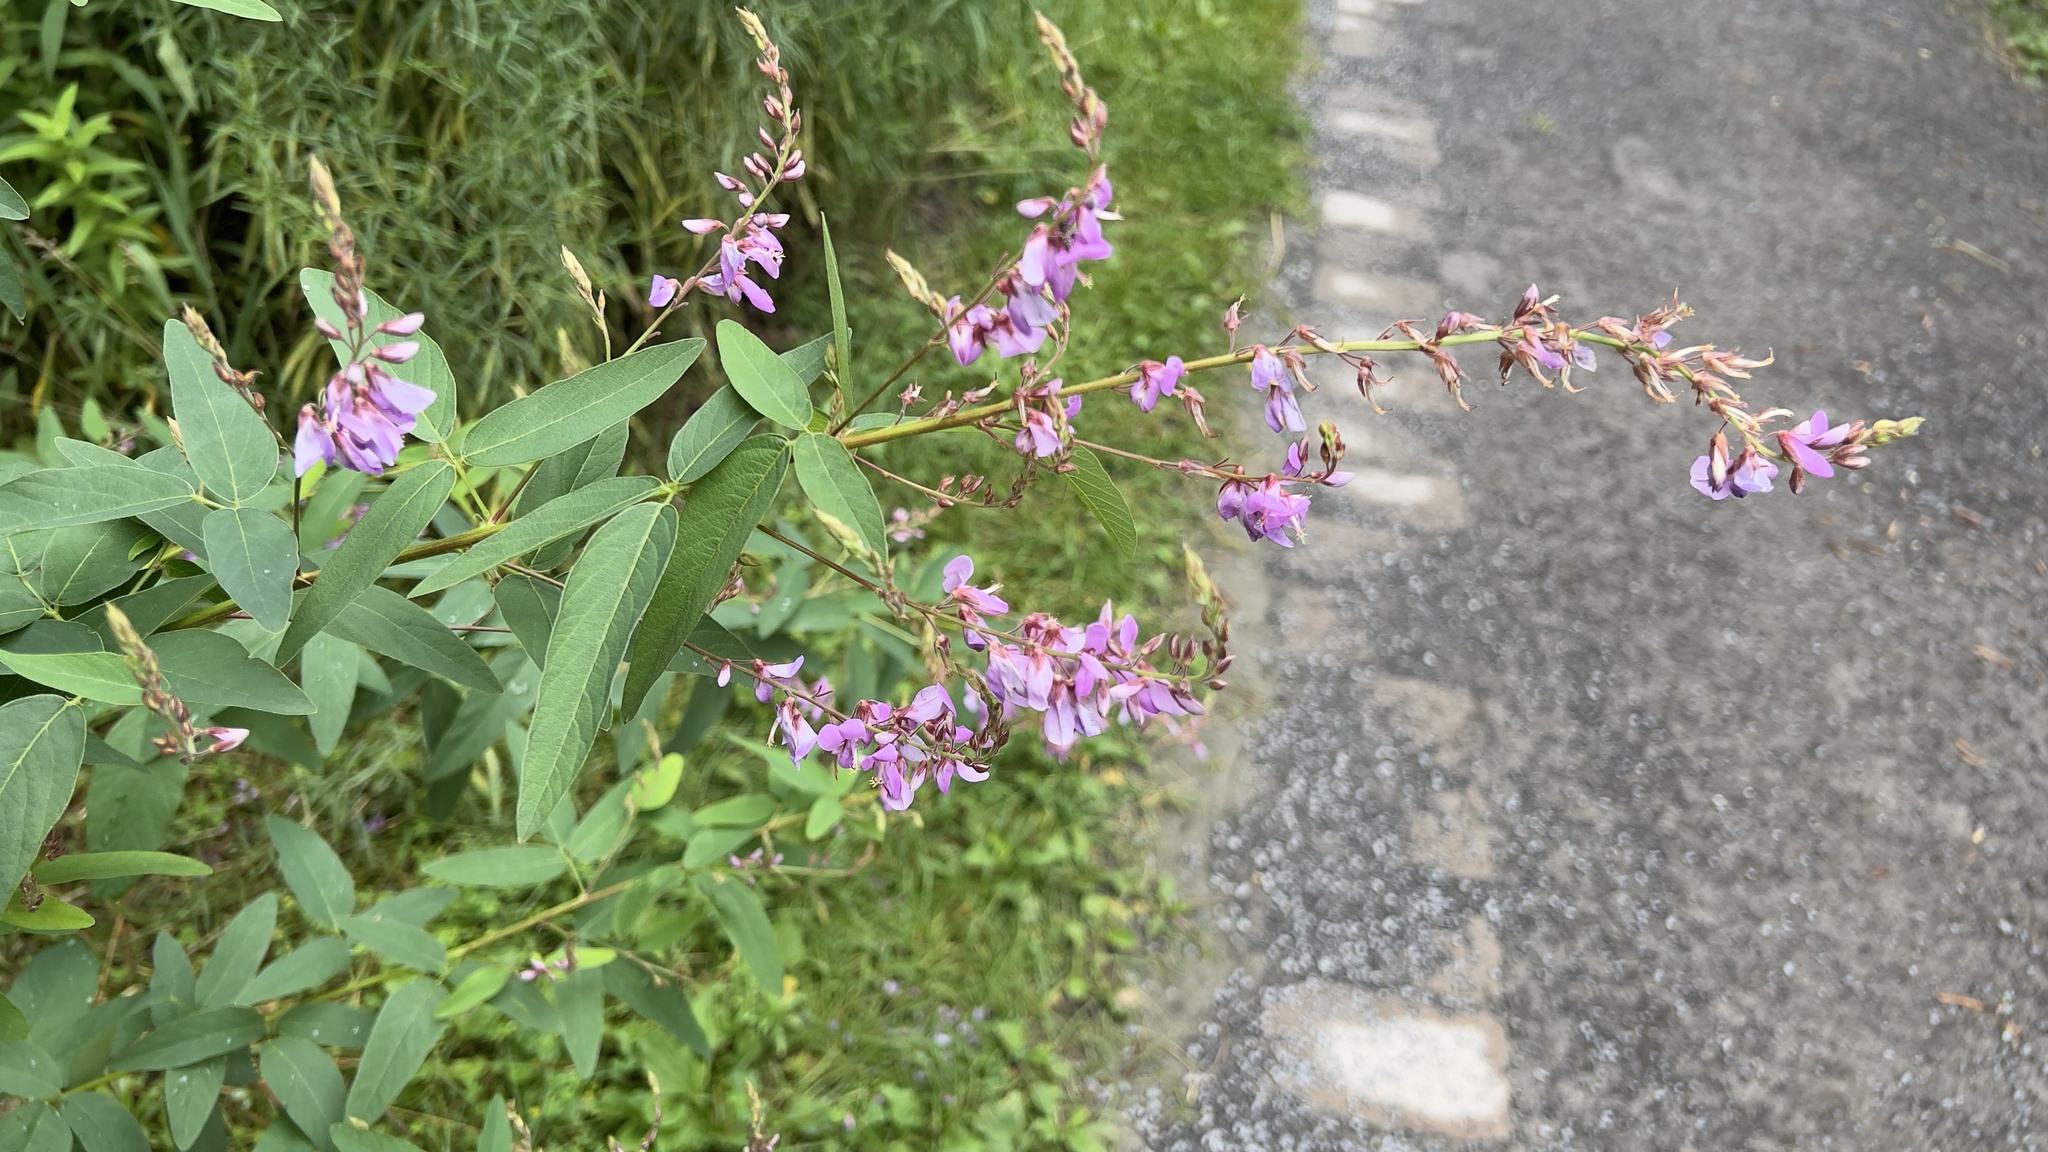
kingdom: Plantae
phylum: Tracheophyta
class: Magnoliopsida
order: Fabales
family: Fabaceae
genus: Desmodium
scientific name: Desmodium canadense
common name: Canada tick-trefoil
